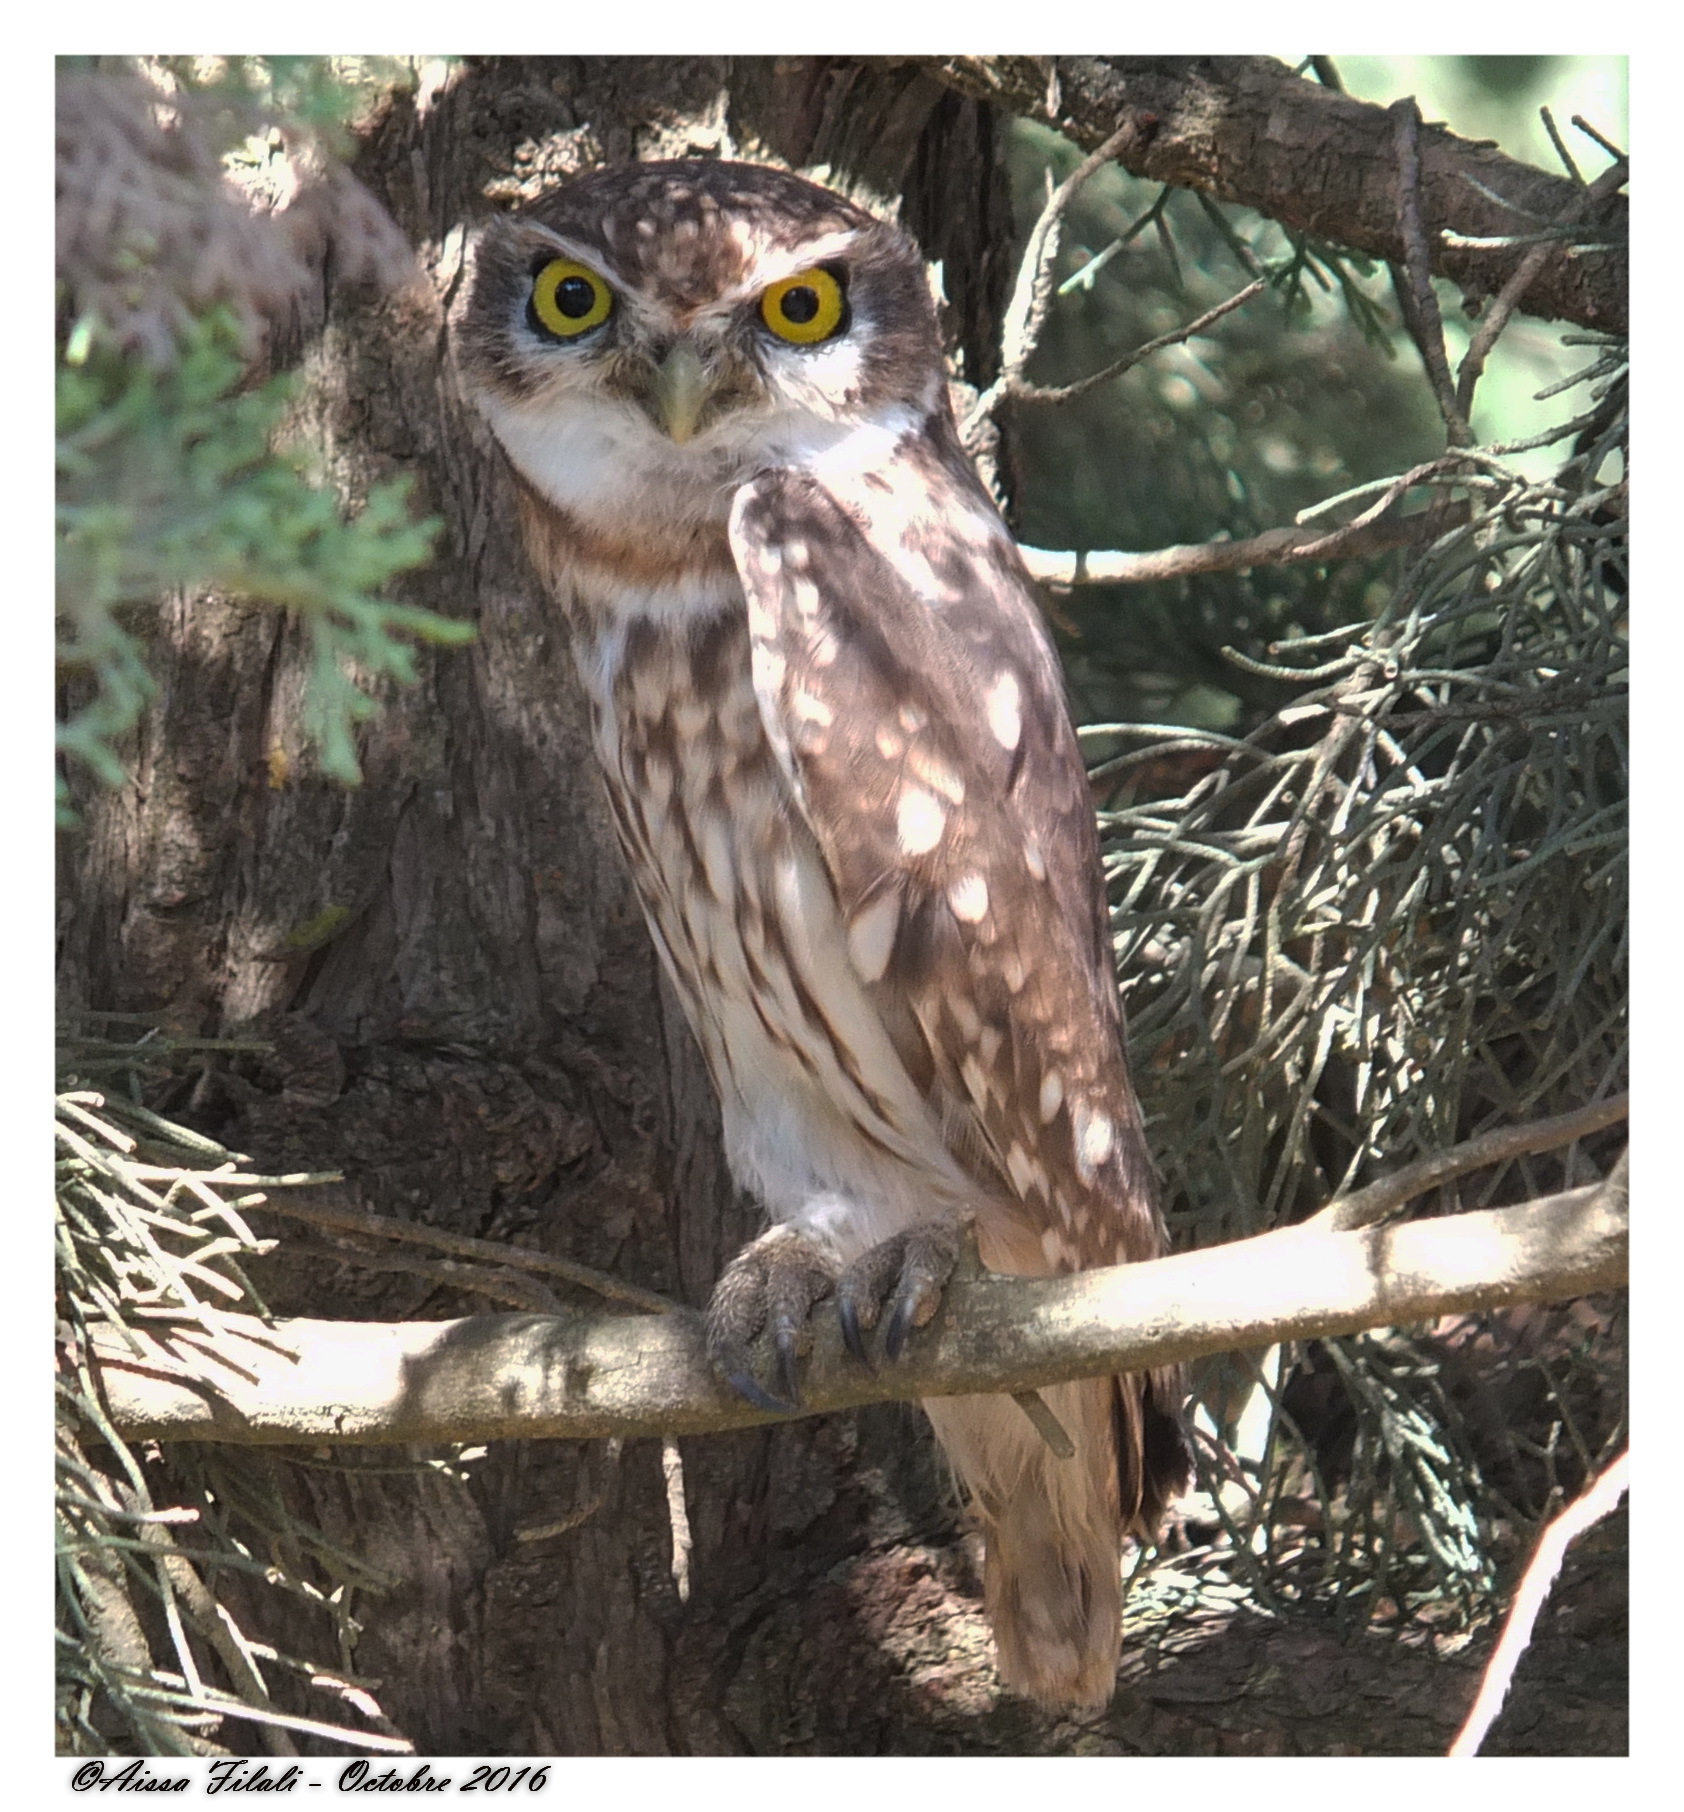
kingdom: Animalia
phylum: Chordata
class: Aves
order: Strigiformes
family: Strigidae
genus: Athene
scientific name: Athene noctua
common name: Little owl
